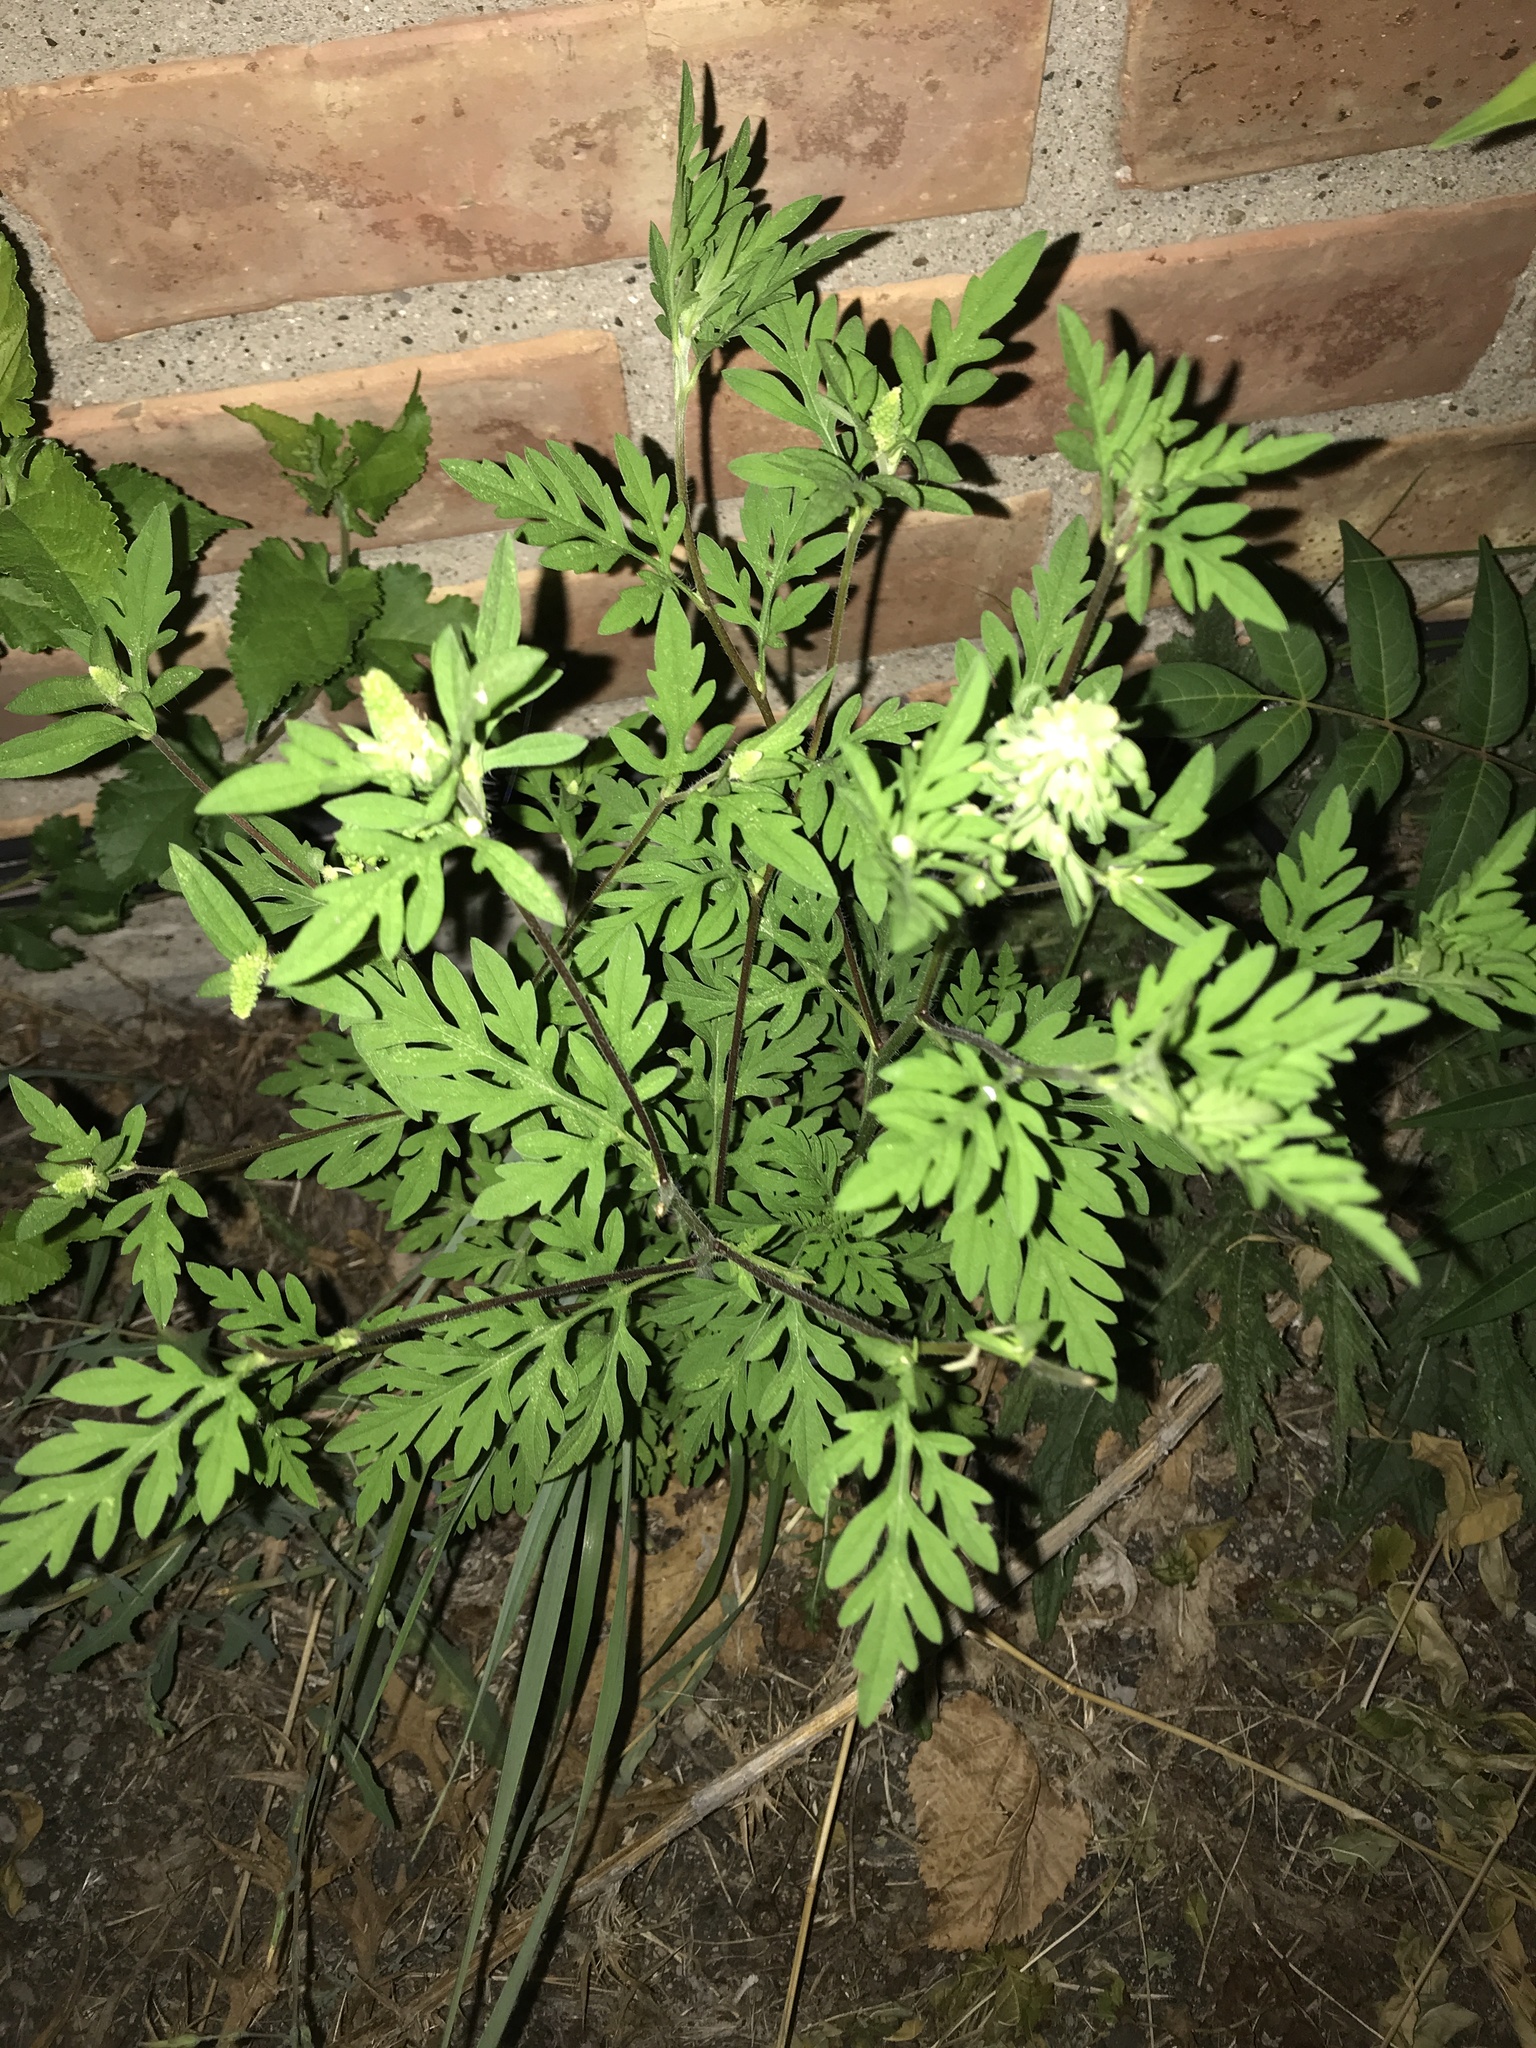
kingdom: Plantae
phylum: Tracheophyta
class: Magnoliopsida
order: Asterales
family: Asteraceae
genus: Ambrosia
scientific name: Ambrosia artemisiifolia
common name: Annual ragweed
